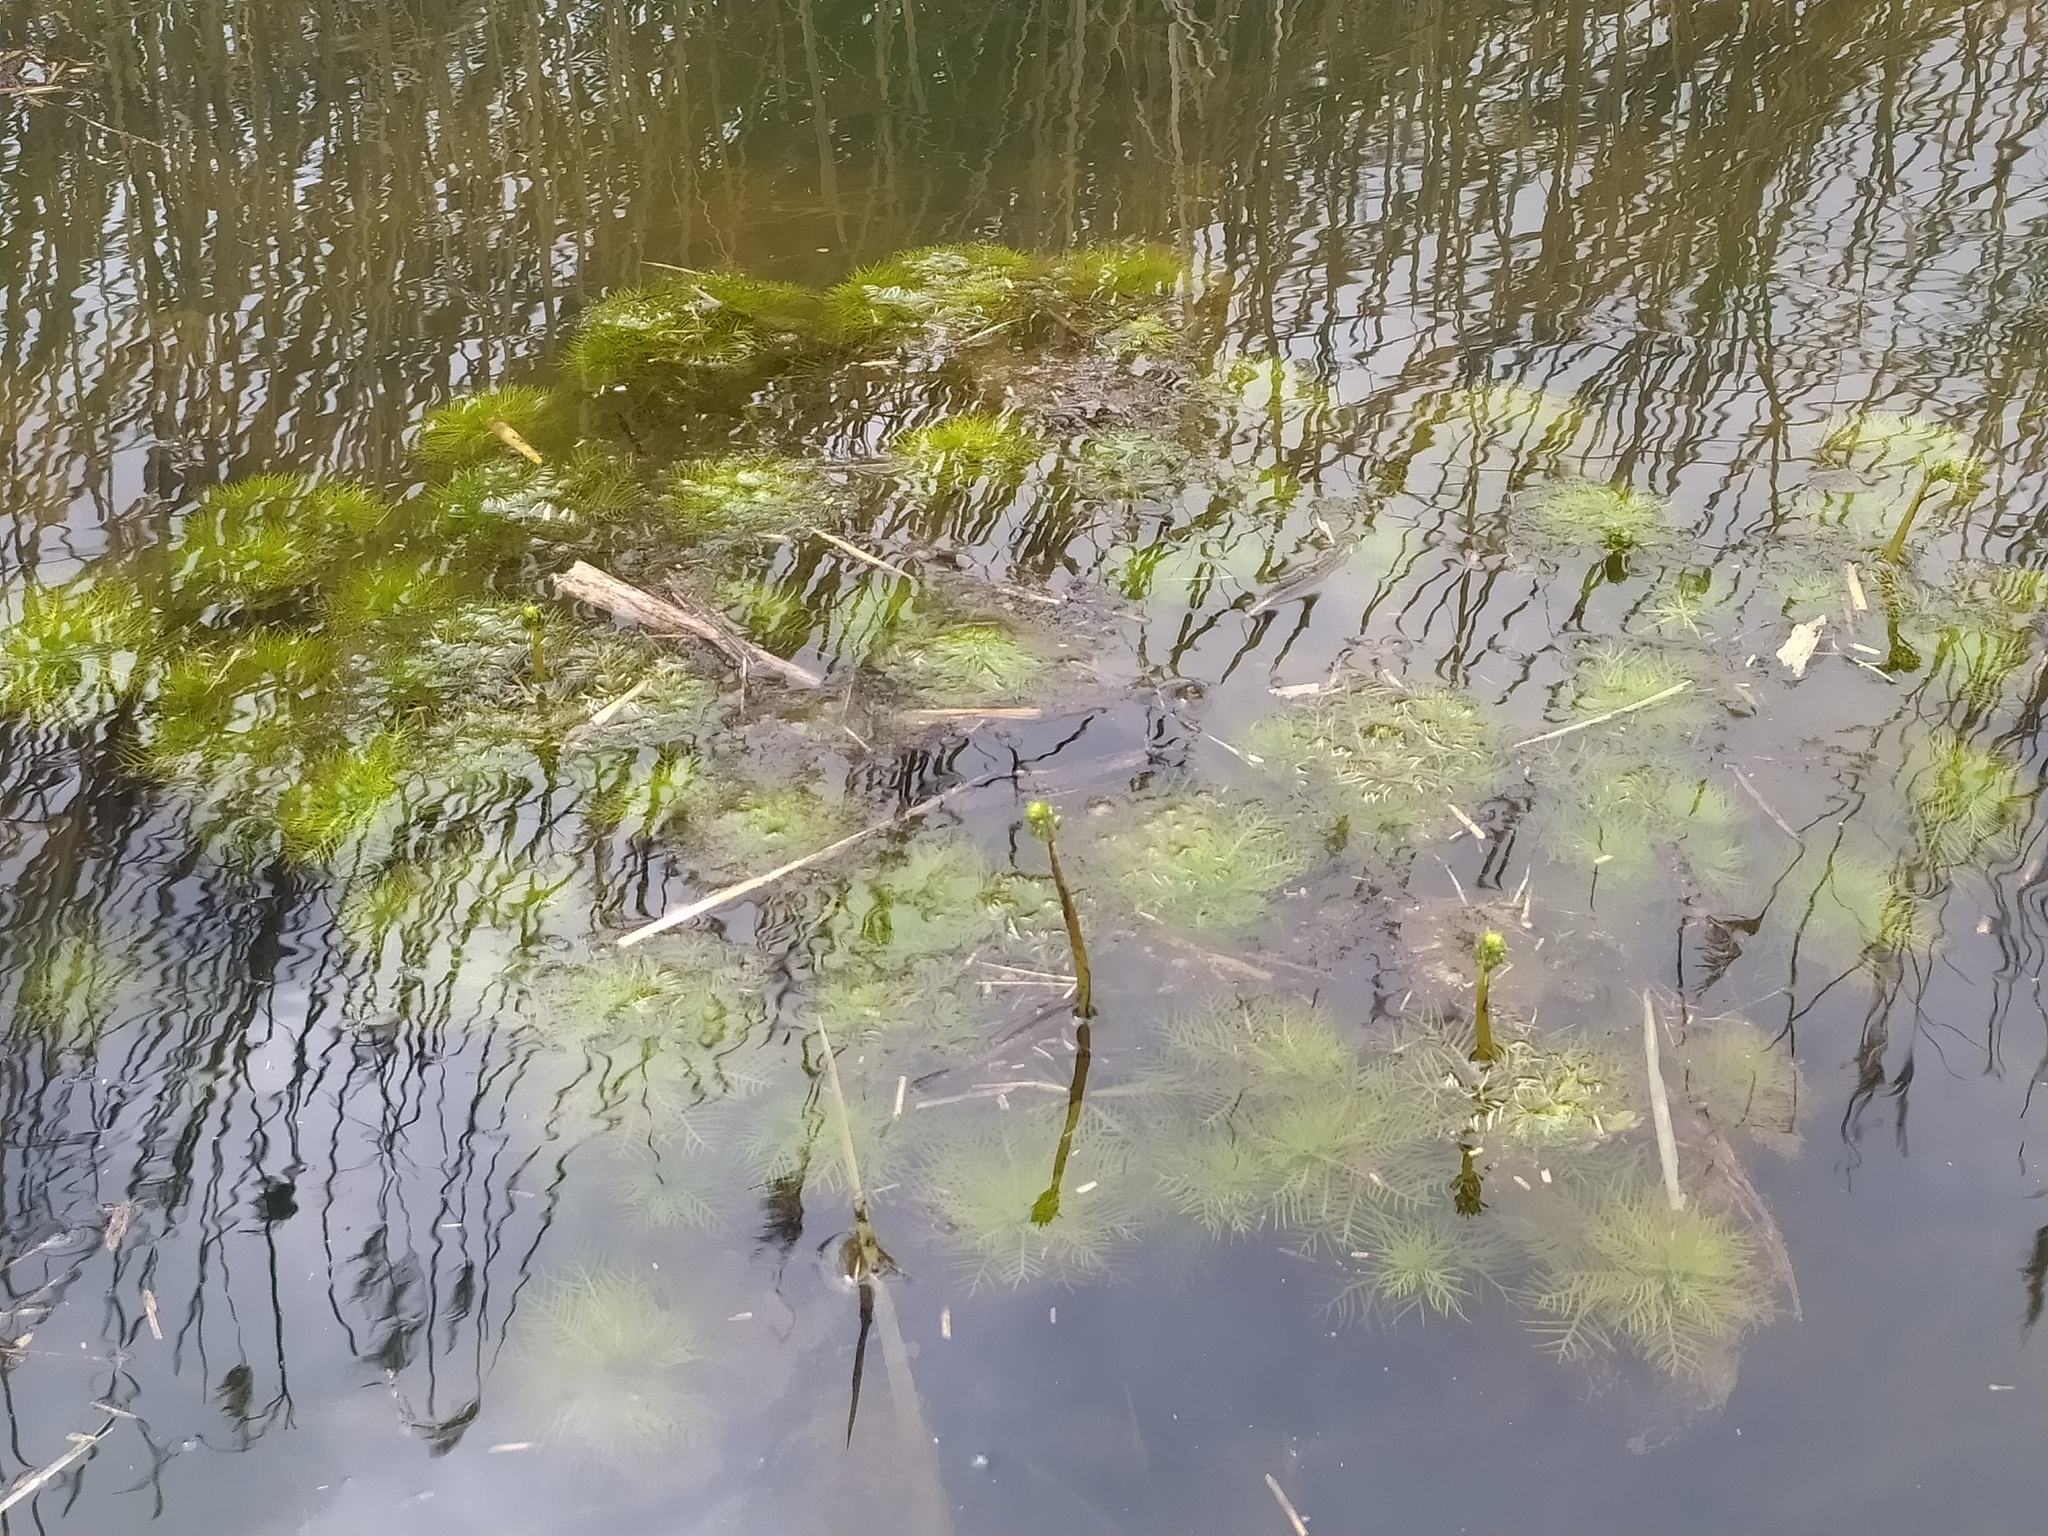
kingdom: Plantae
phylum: Tracheophyta
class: Magnoliopsida
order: Ericales
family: Primulaceae
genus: Hottonia
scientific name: Hottonia palustris
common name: Water-violet
